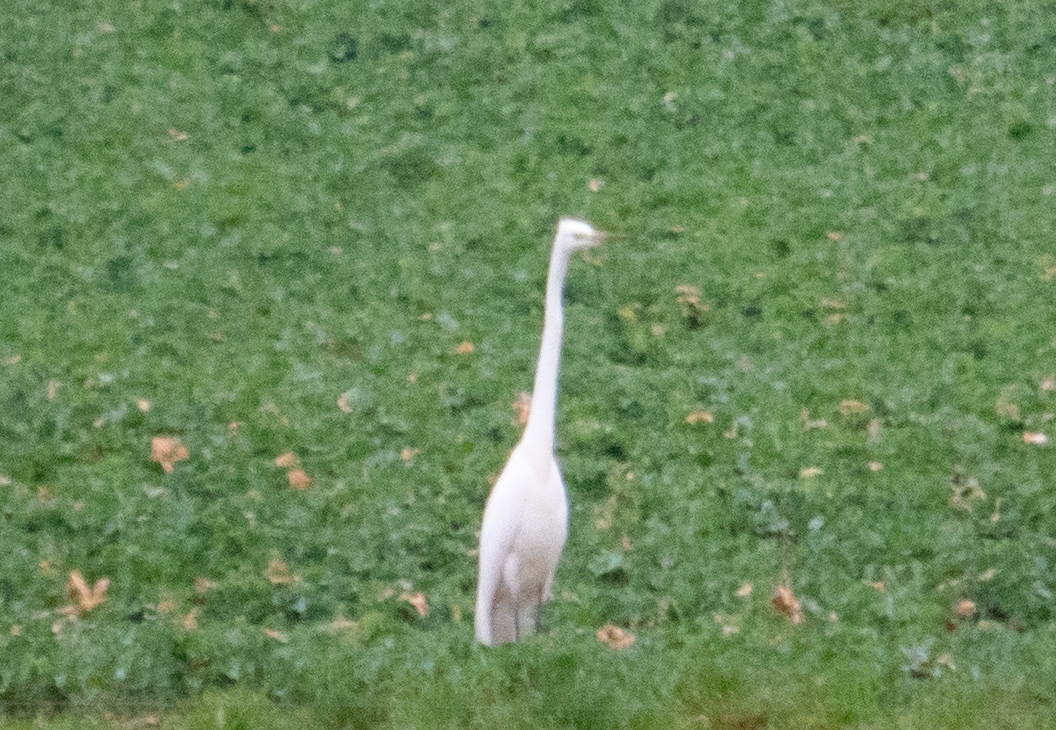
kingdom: Animalia
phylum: Chordata
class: Aves
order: Pelecaniformes
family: Ardeidae
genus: Ardea
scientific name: Ardea alba
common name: Great egret
